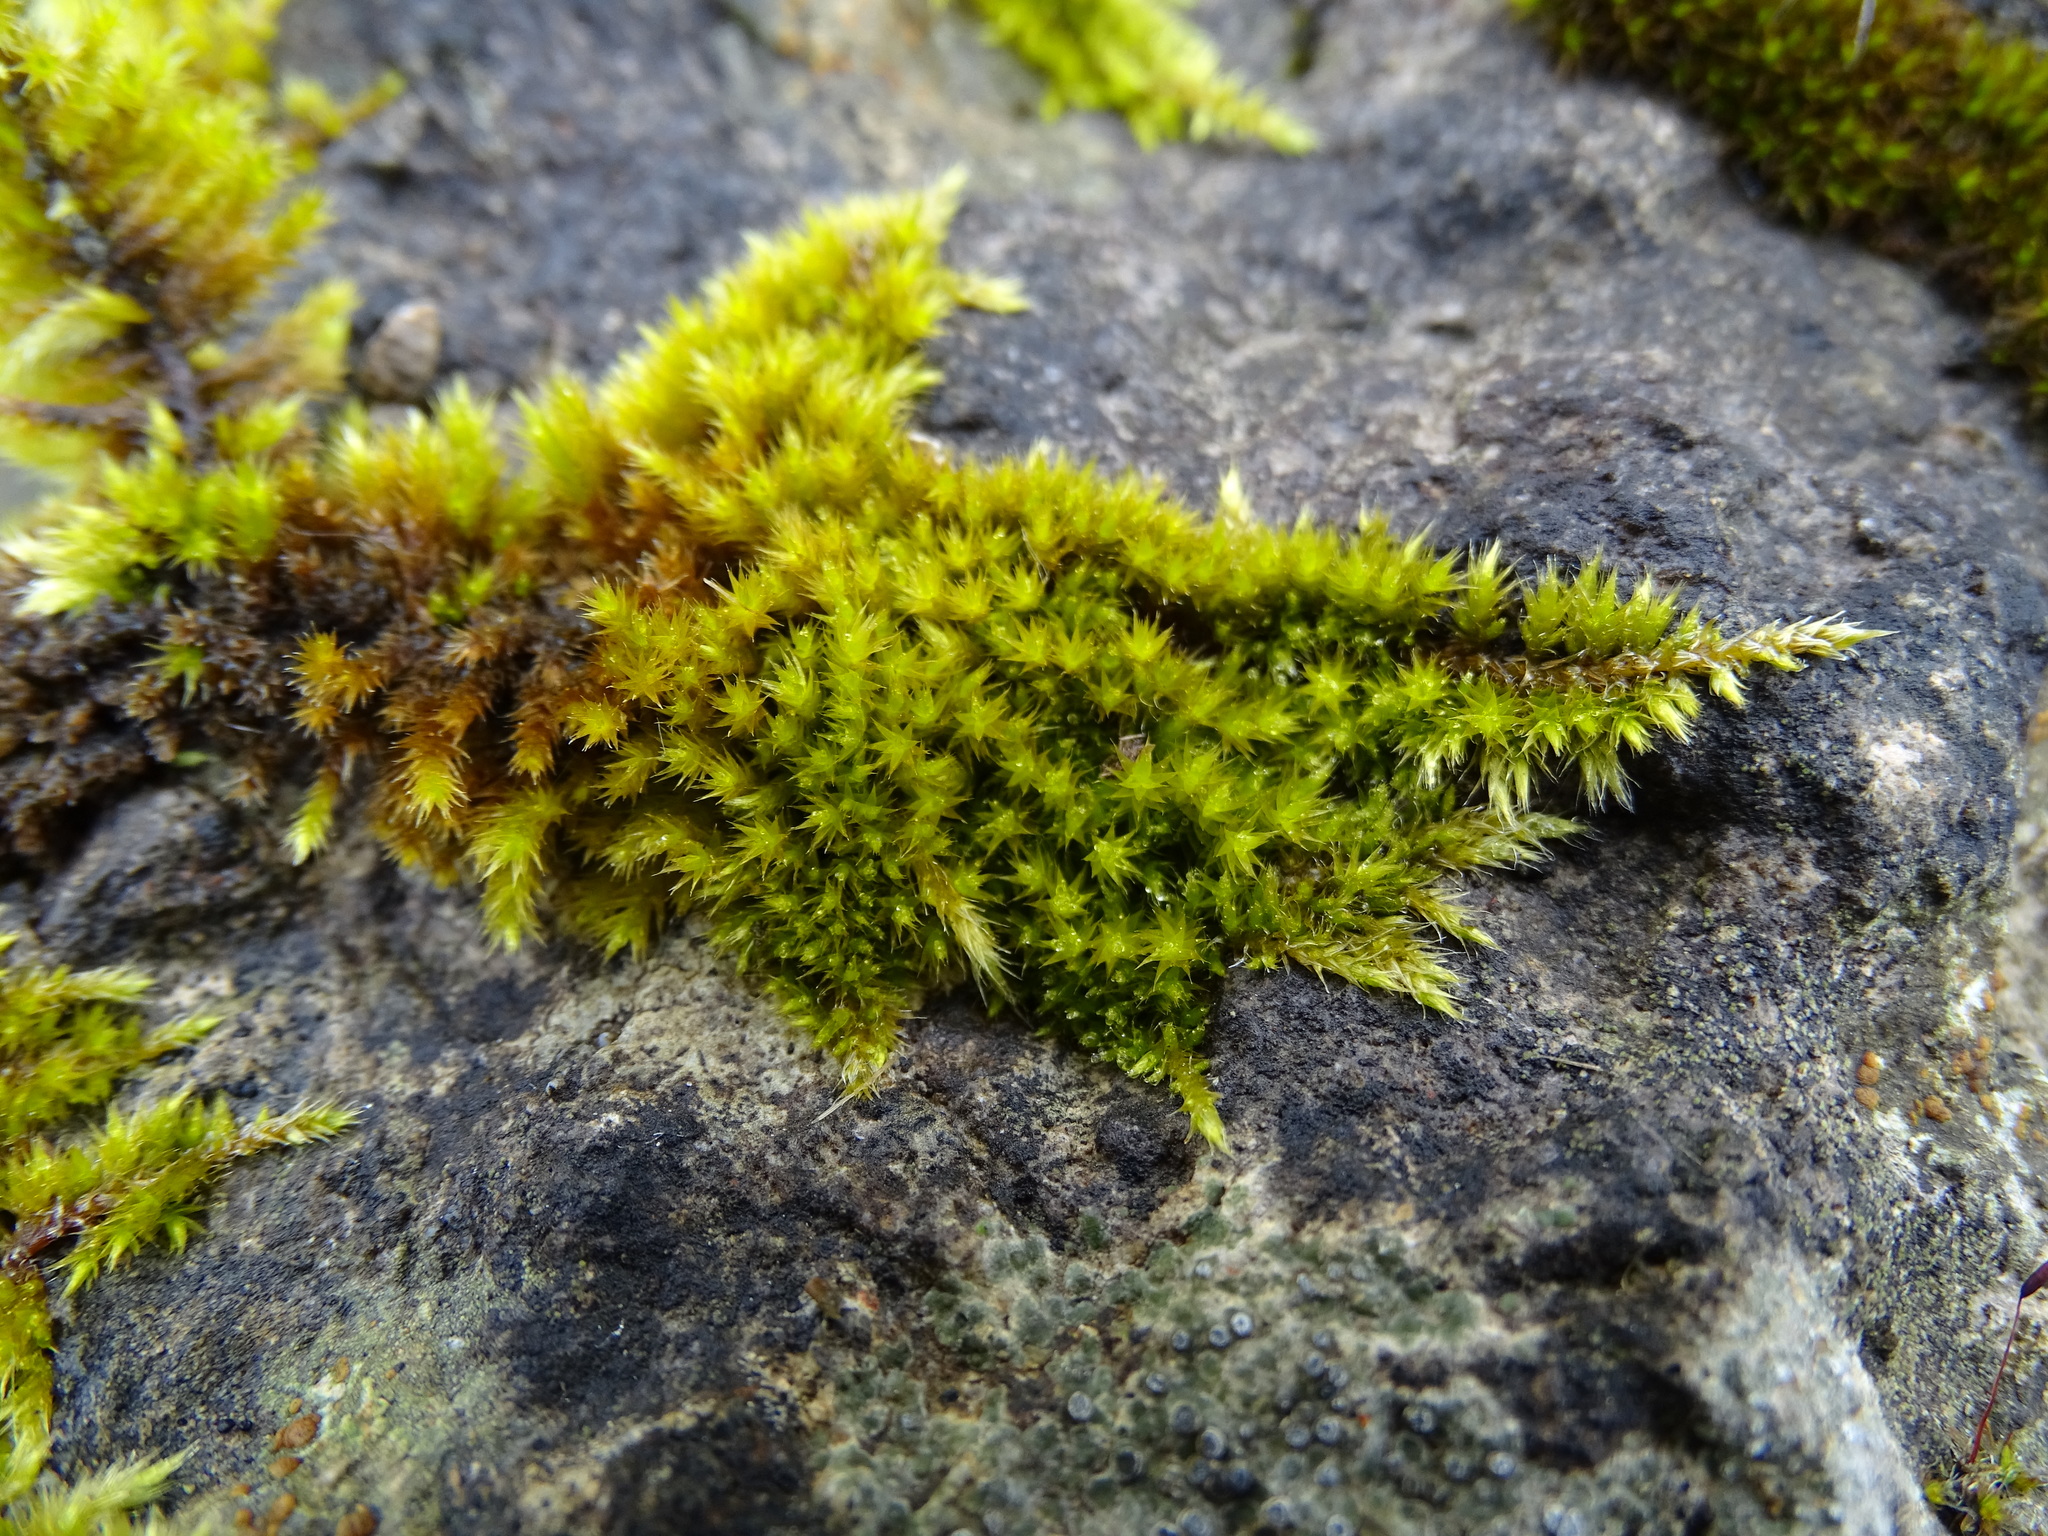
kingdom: Plantae
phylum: Bryophyta
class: Bryopsida
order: Hypnales
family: Brachytheciaceae
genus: Homalothecium
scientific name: Homalothecium sericeum
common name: Silky wall feather-moss
